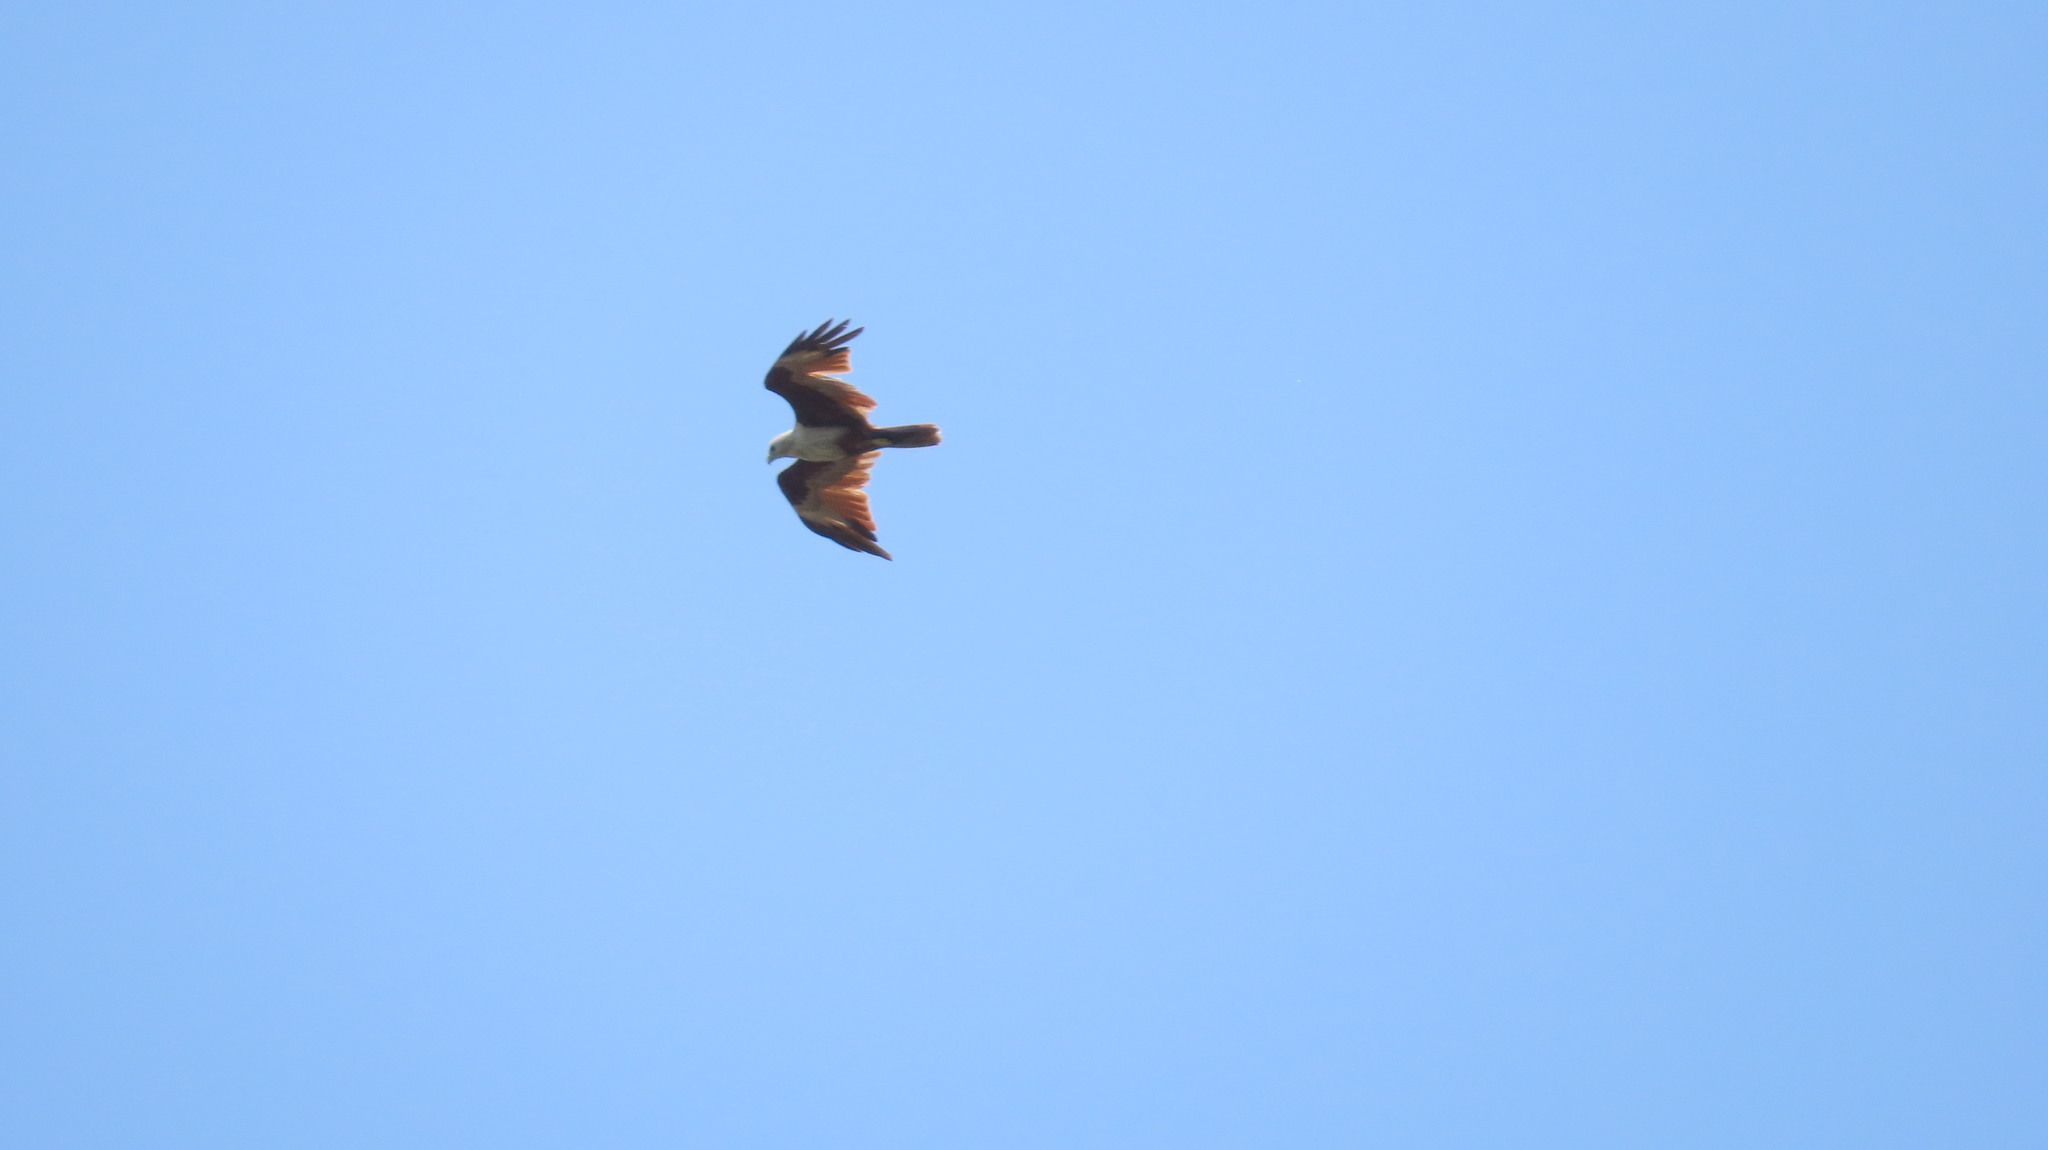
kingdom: Animalia
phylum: Chordata
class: Aves
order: Accipitriformes
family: Accipitridae
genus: Haliastur
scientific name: Haliastur indus
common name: Brahminy kite
